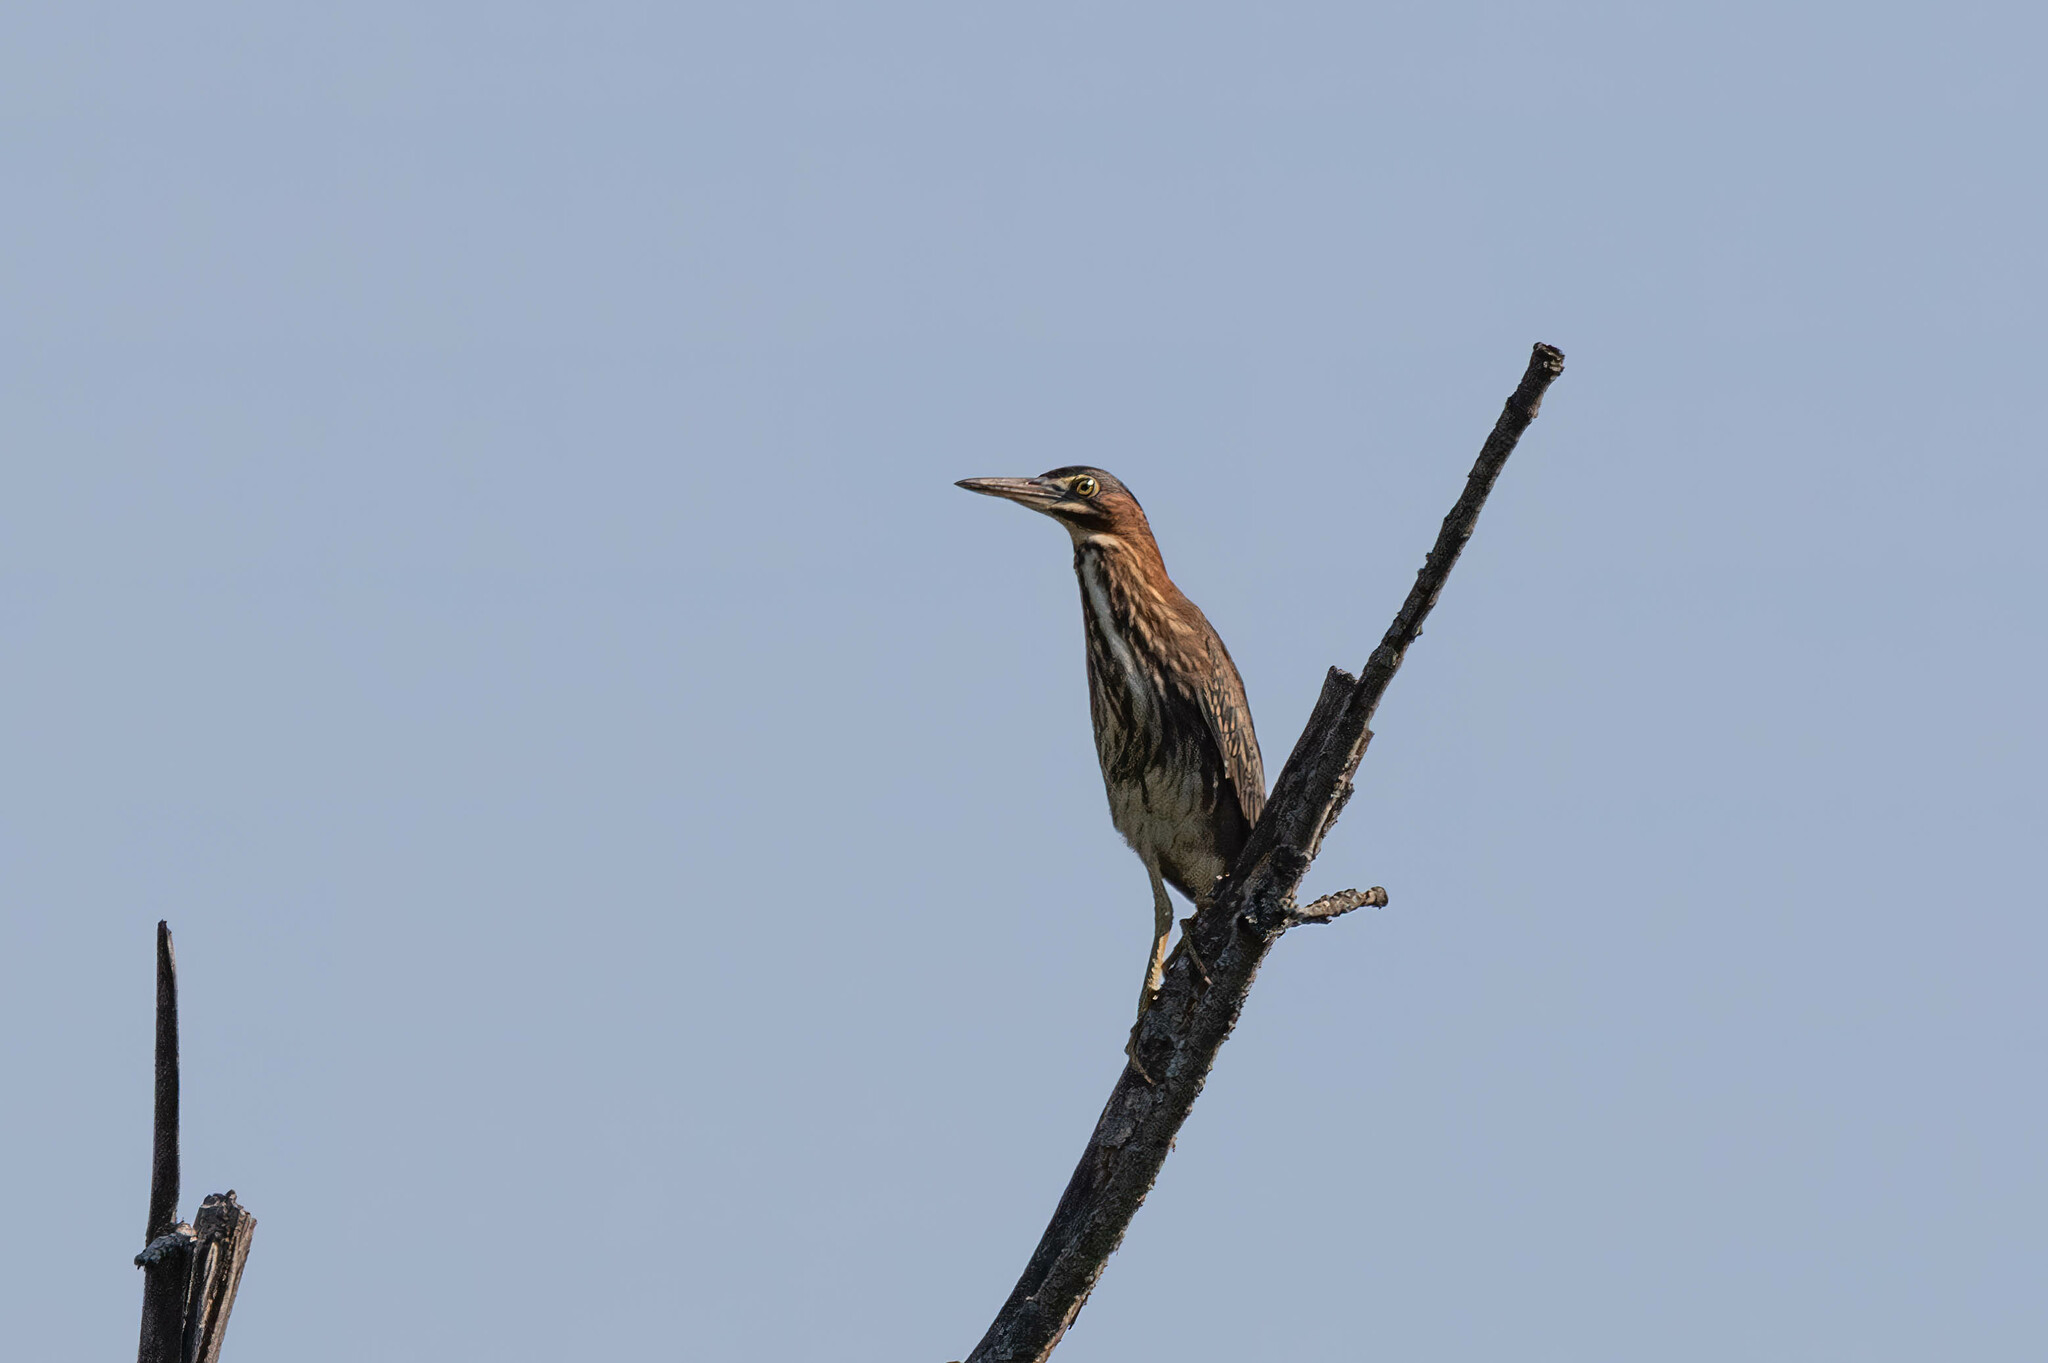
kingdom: Animalia
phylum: Chordata
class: Aves
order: Pelecaniformes
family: Ardeidae
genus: Butorides
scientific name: Butorides virescens
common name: Green heron
